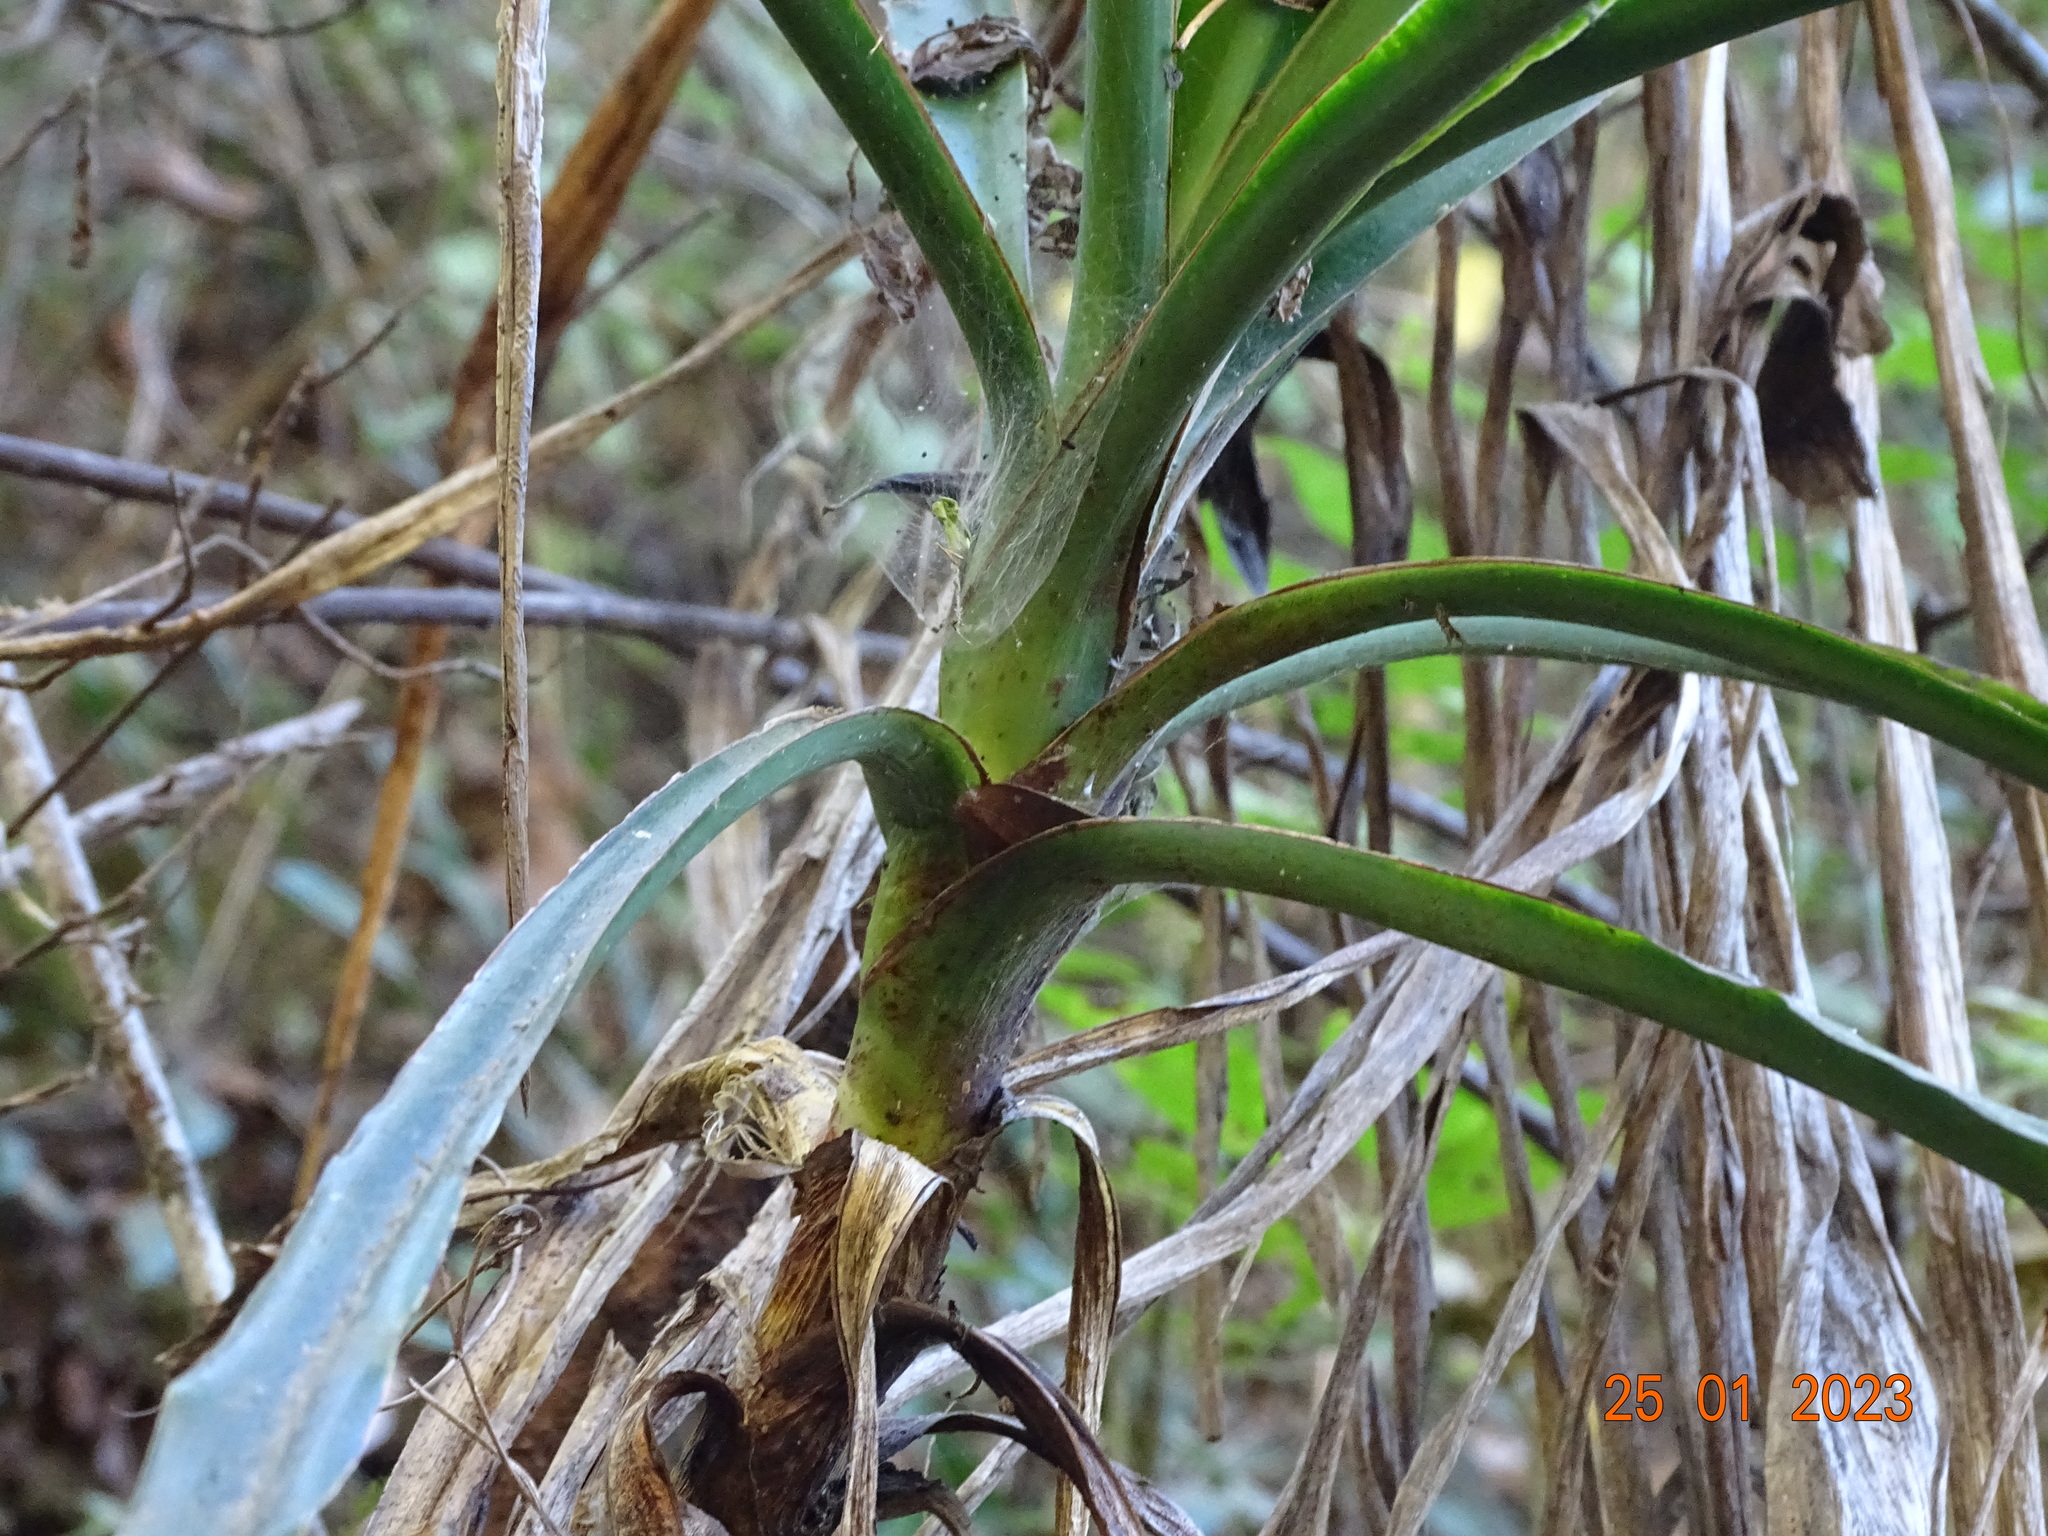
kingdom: Plantae
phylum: Tracheophyta
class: Liliopsida
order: Asparagales
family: Asparagaceae
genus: Yucca
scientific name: Yucca jaliscensis
